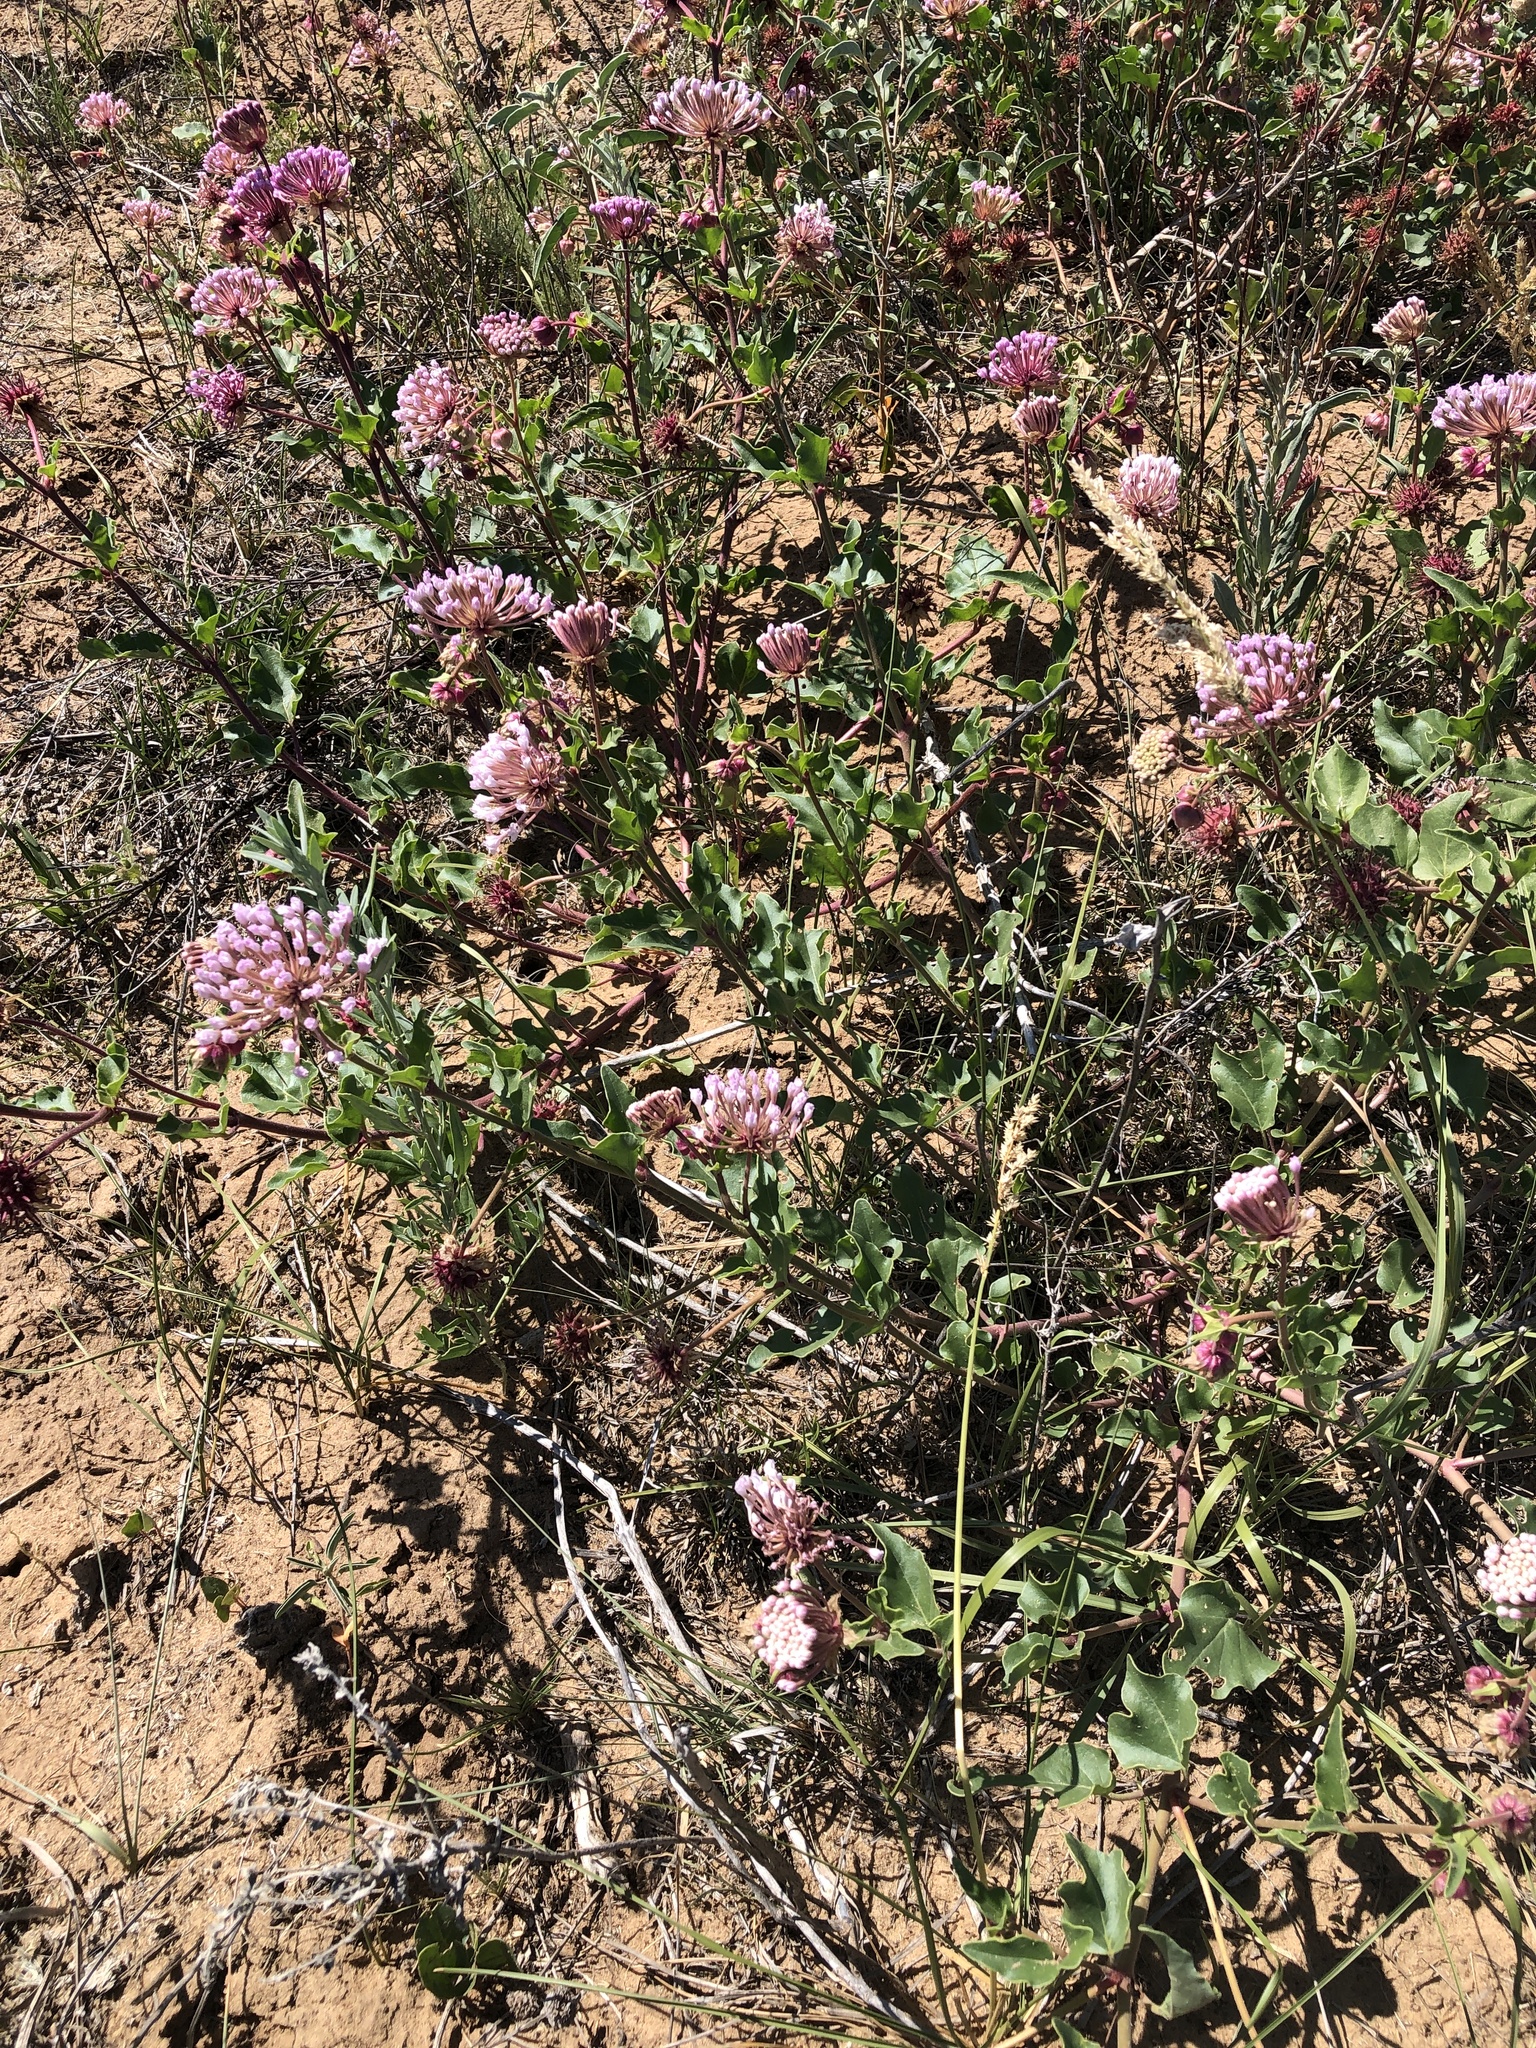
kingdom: Plantae
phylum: Tracheophyta
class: Magnoliopsida
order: Caryophyllales
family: Nyctaginaceae
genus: Abronia
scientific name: Abronia fragrans
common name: Fragrant sand-verbena
